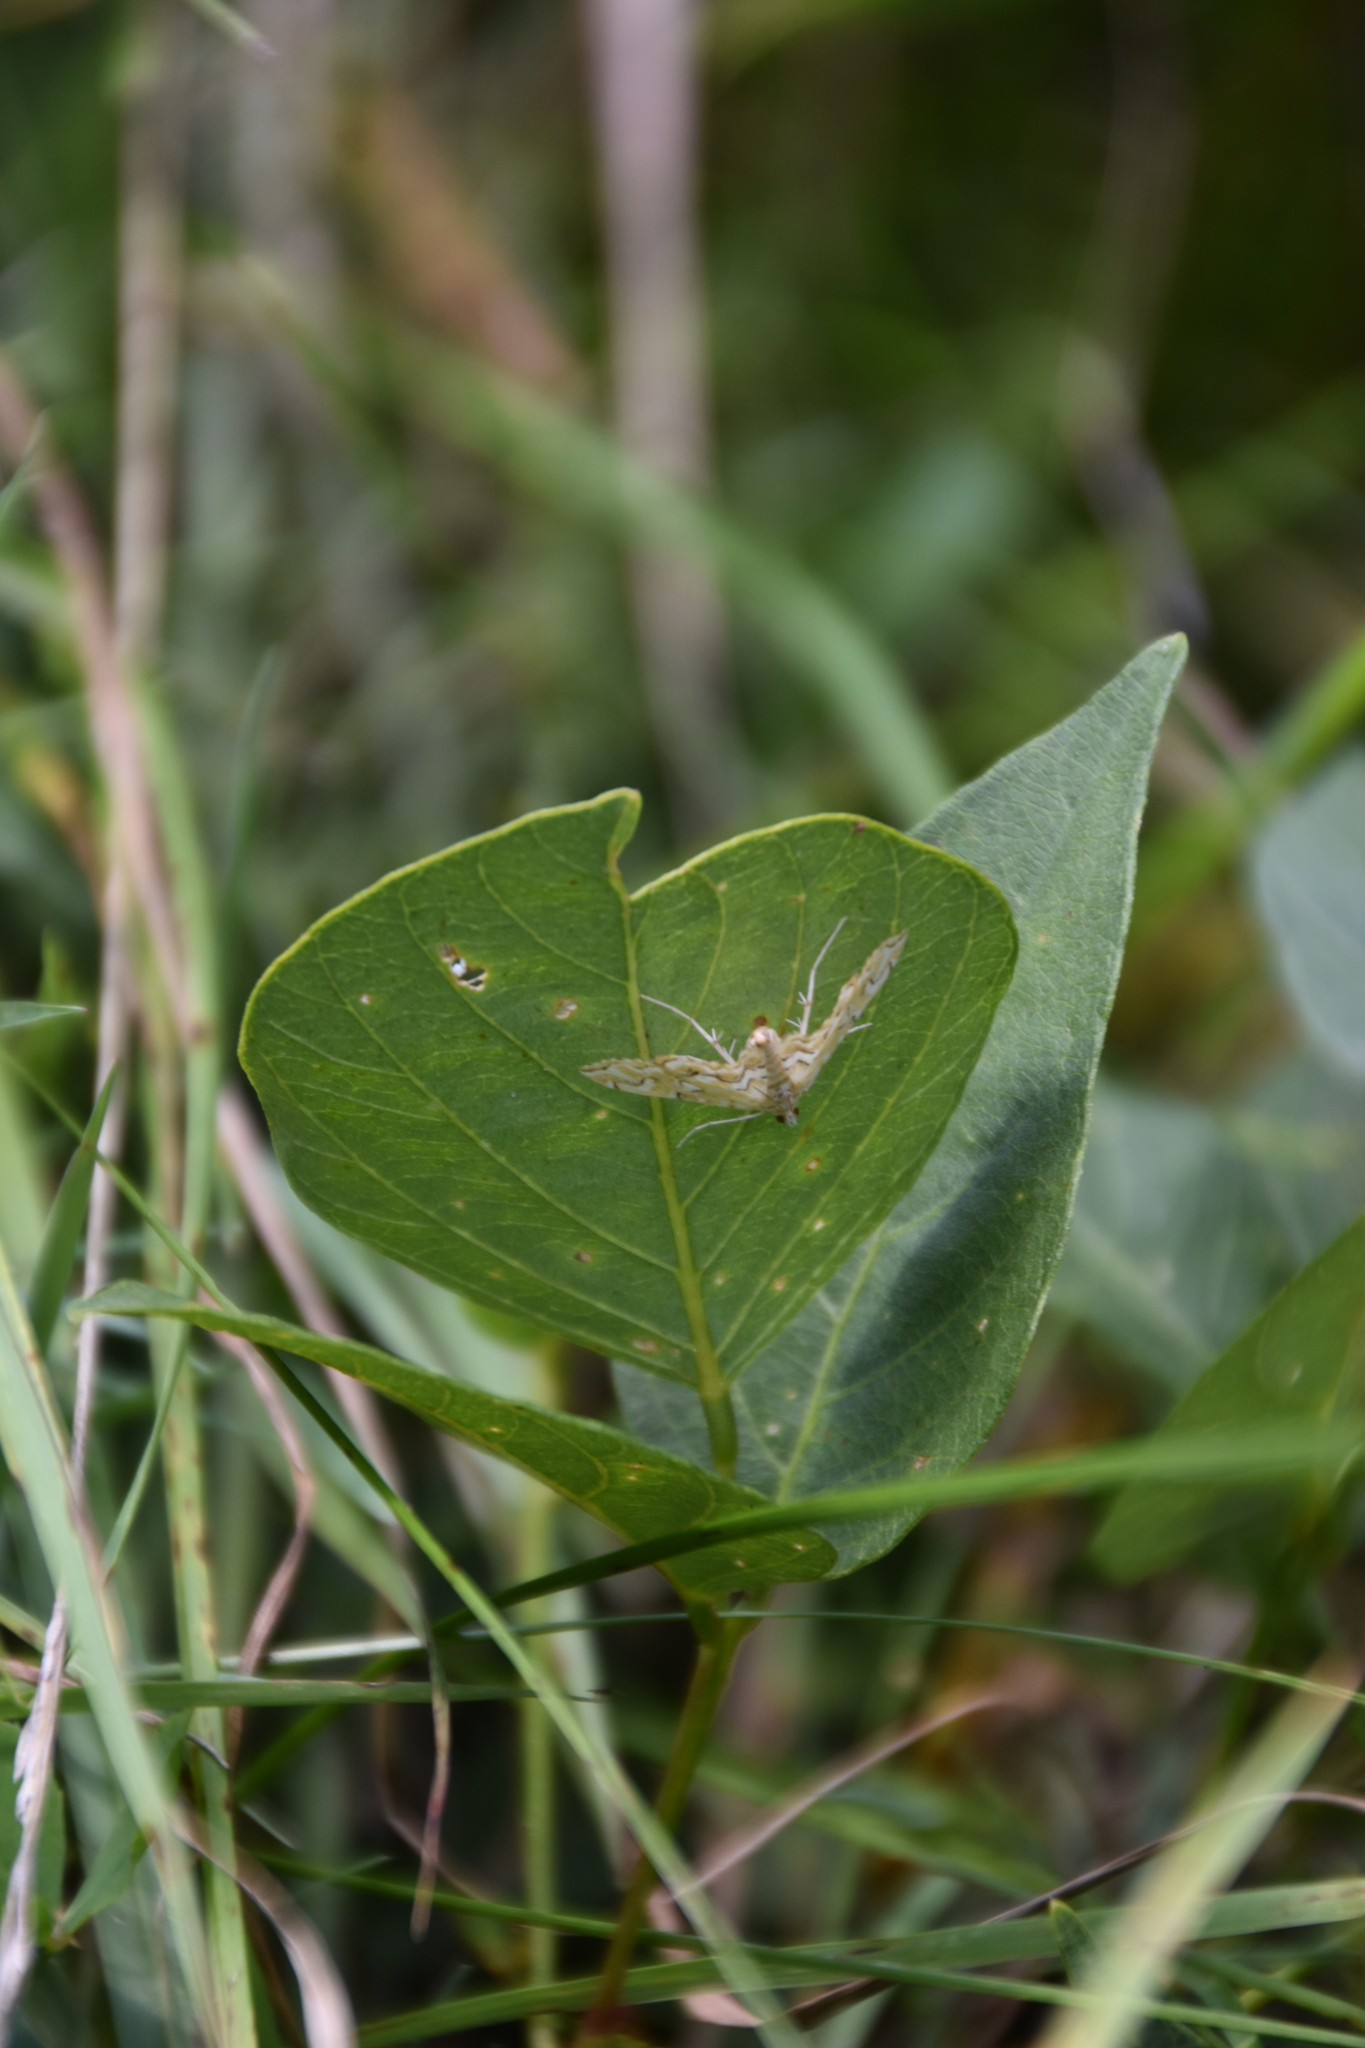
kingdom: Animalia
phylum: Arthropoda
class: Insecta
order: Lepidoptera
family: Crambidae
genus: Elophila
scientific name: Elophila icciusalis
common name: Pondside pyralid moth
